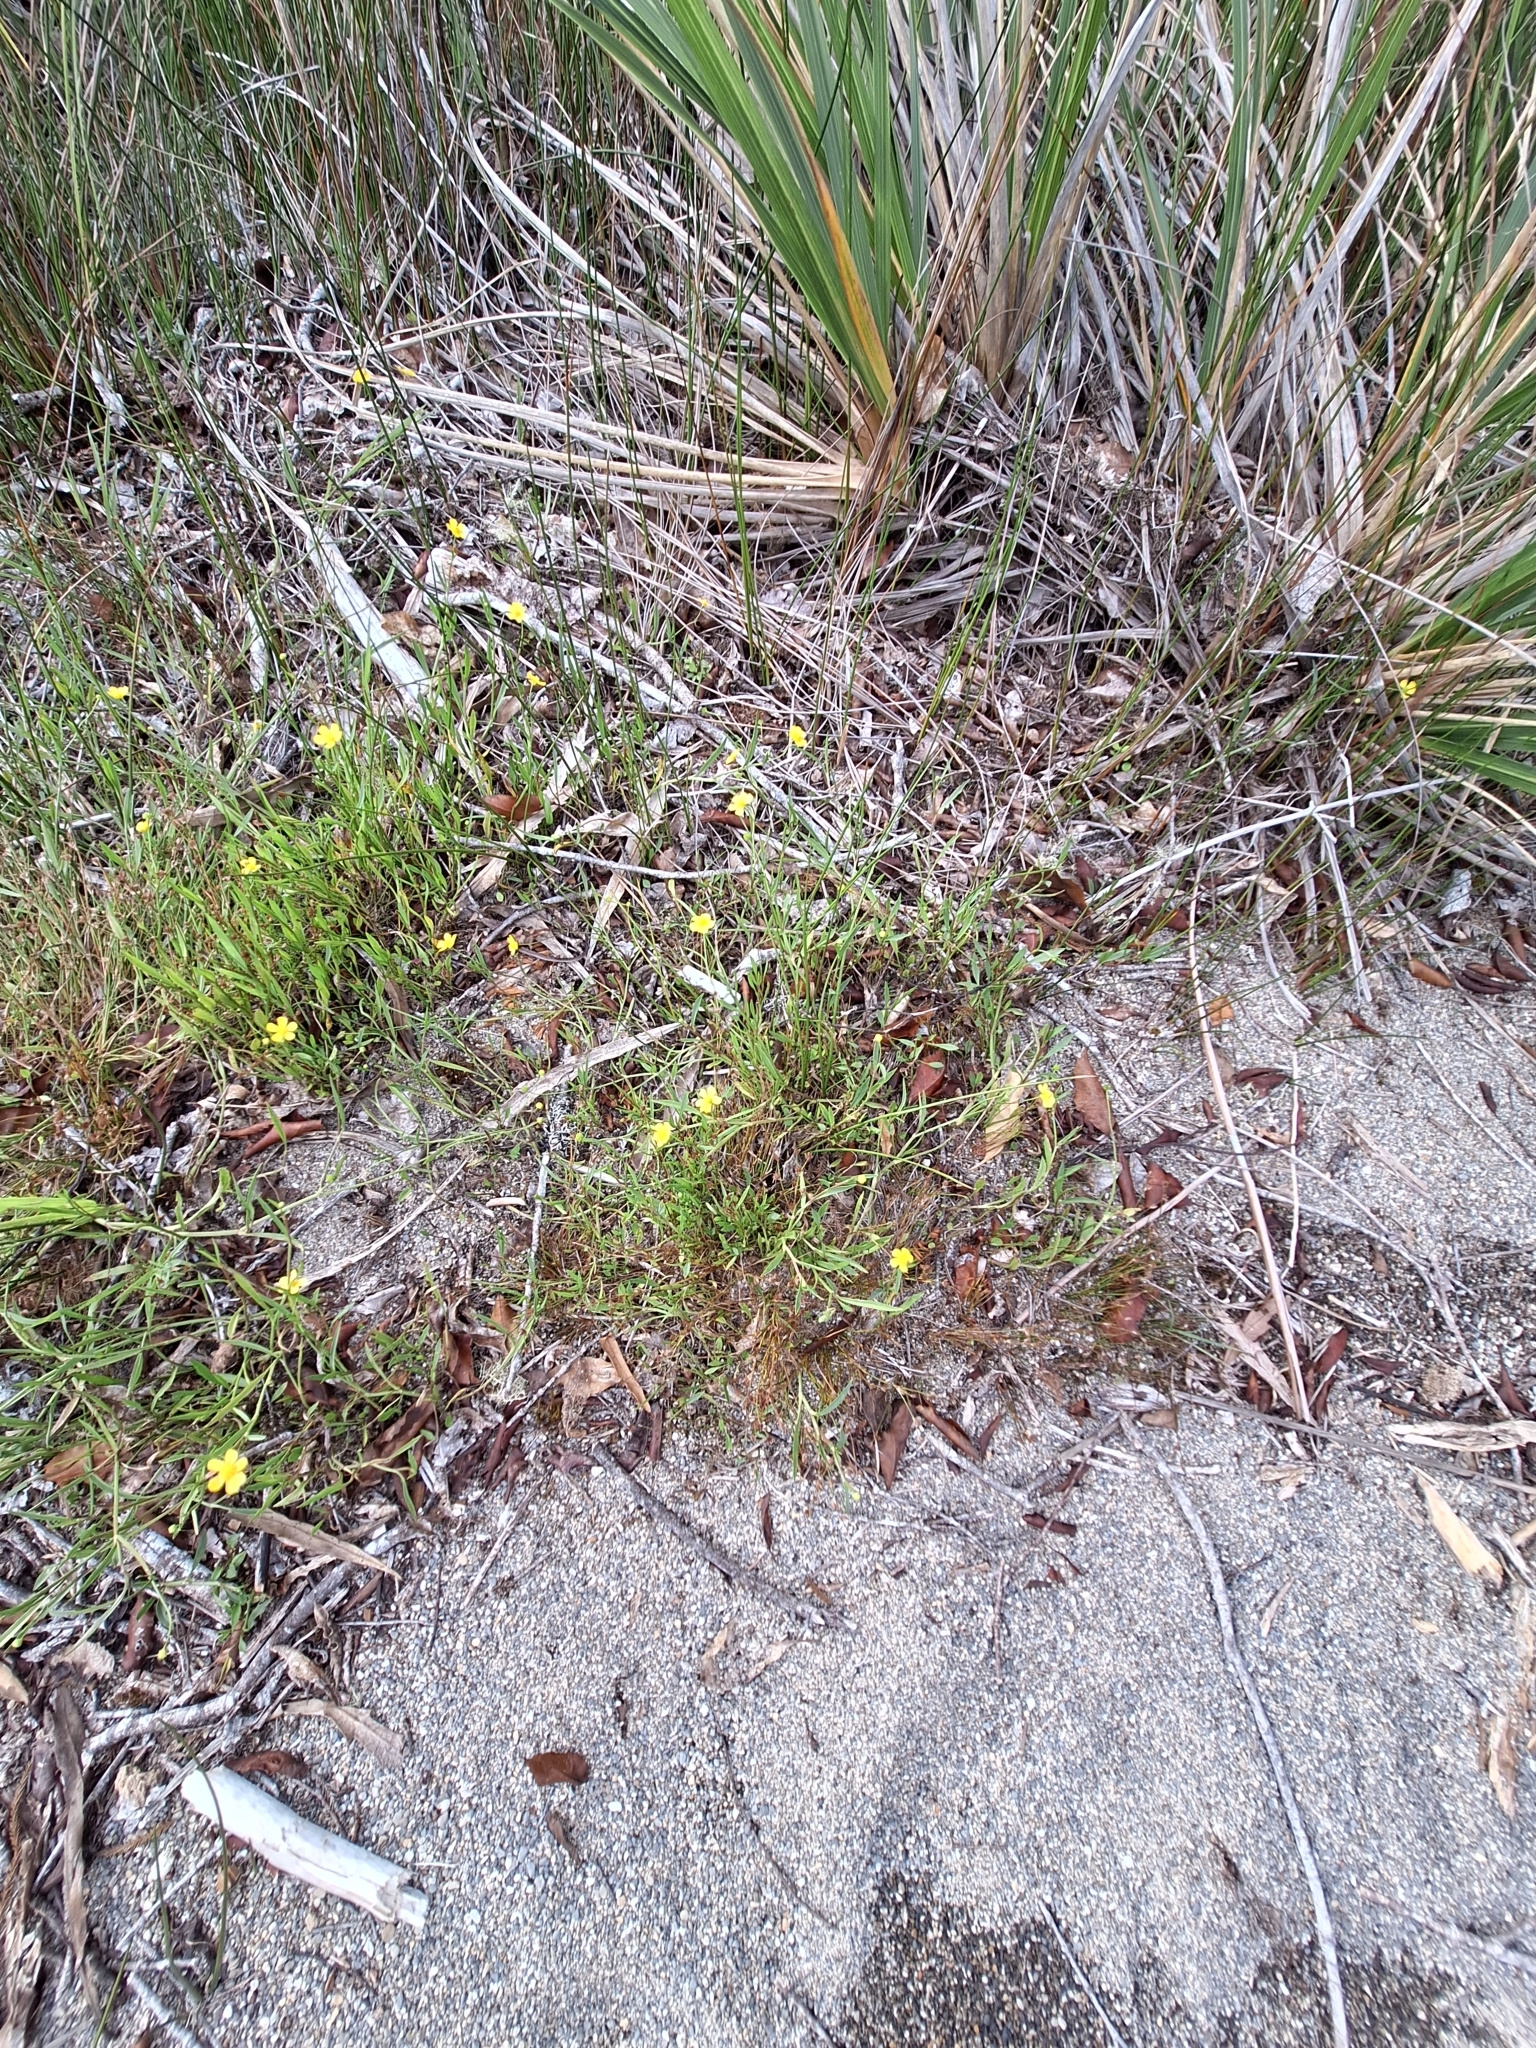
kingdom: Plantae
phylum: Tracheophyta
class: Magnoliopsida
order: Ranunculales
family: Ranunculaceae
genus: Ranunculus
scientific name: Ranunculus flammula
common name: Lesser spearwort
